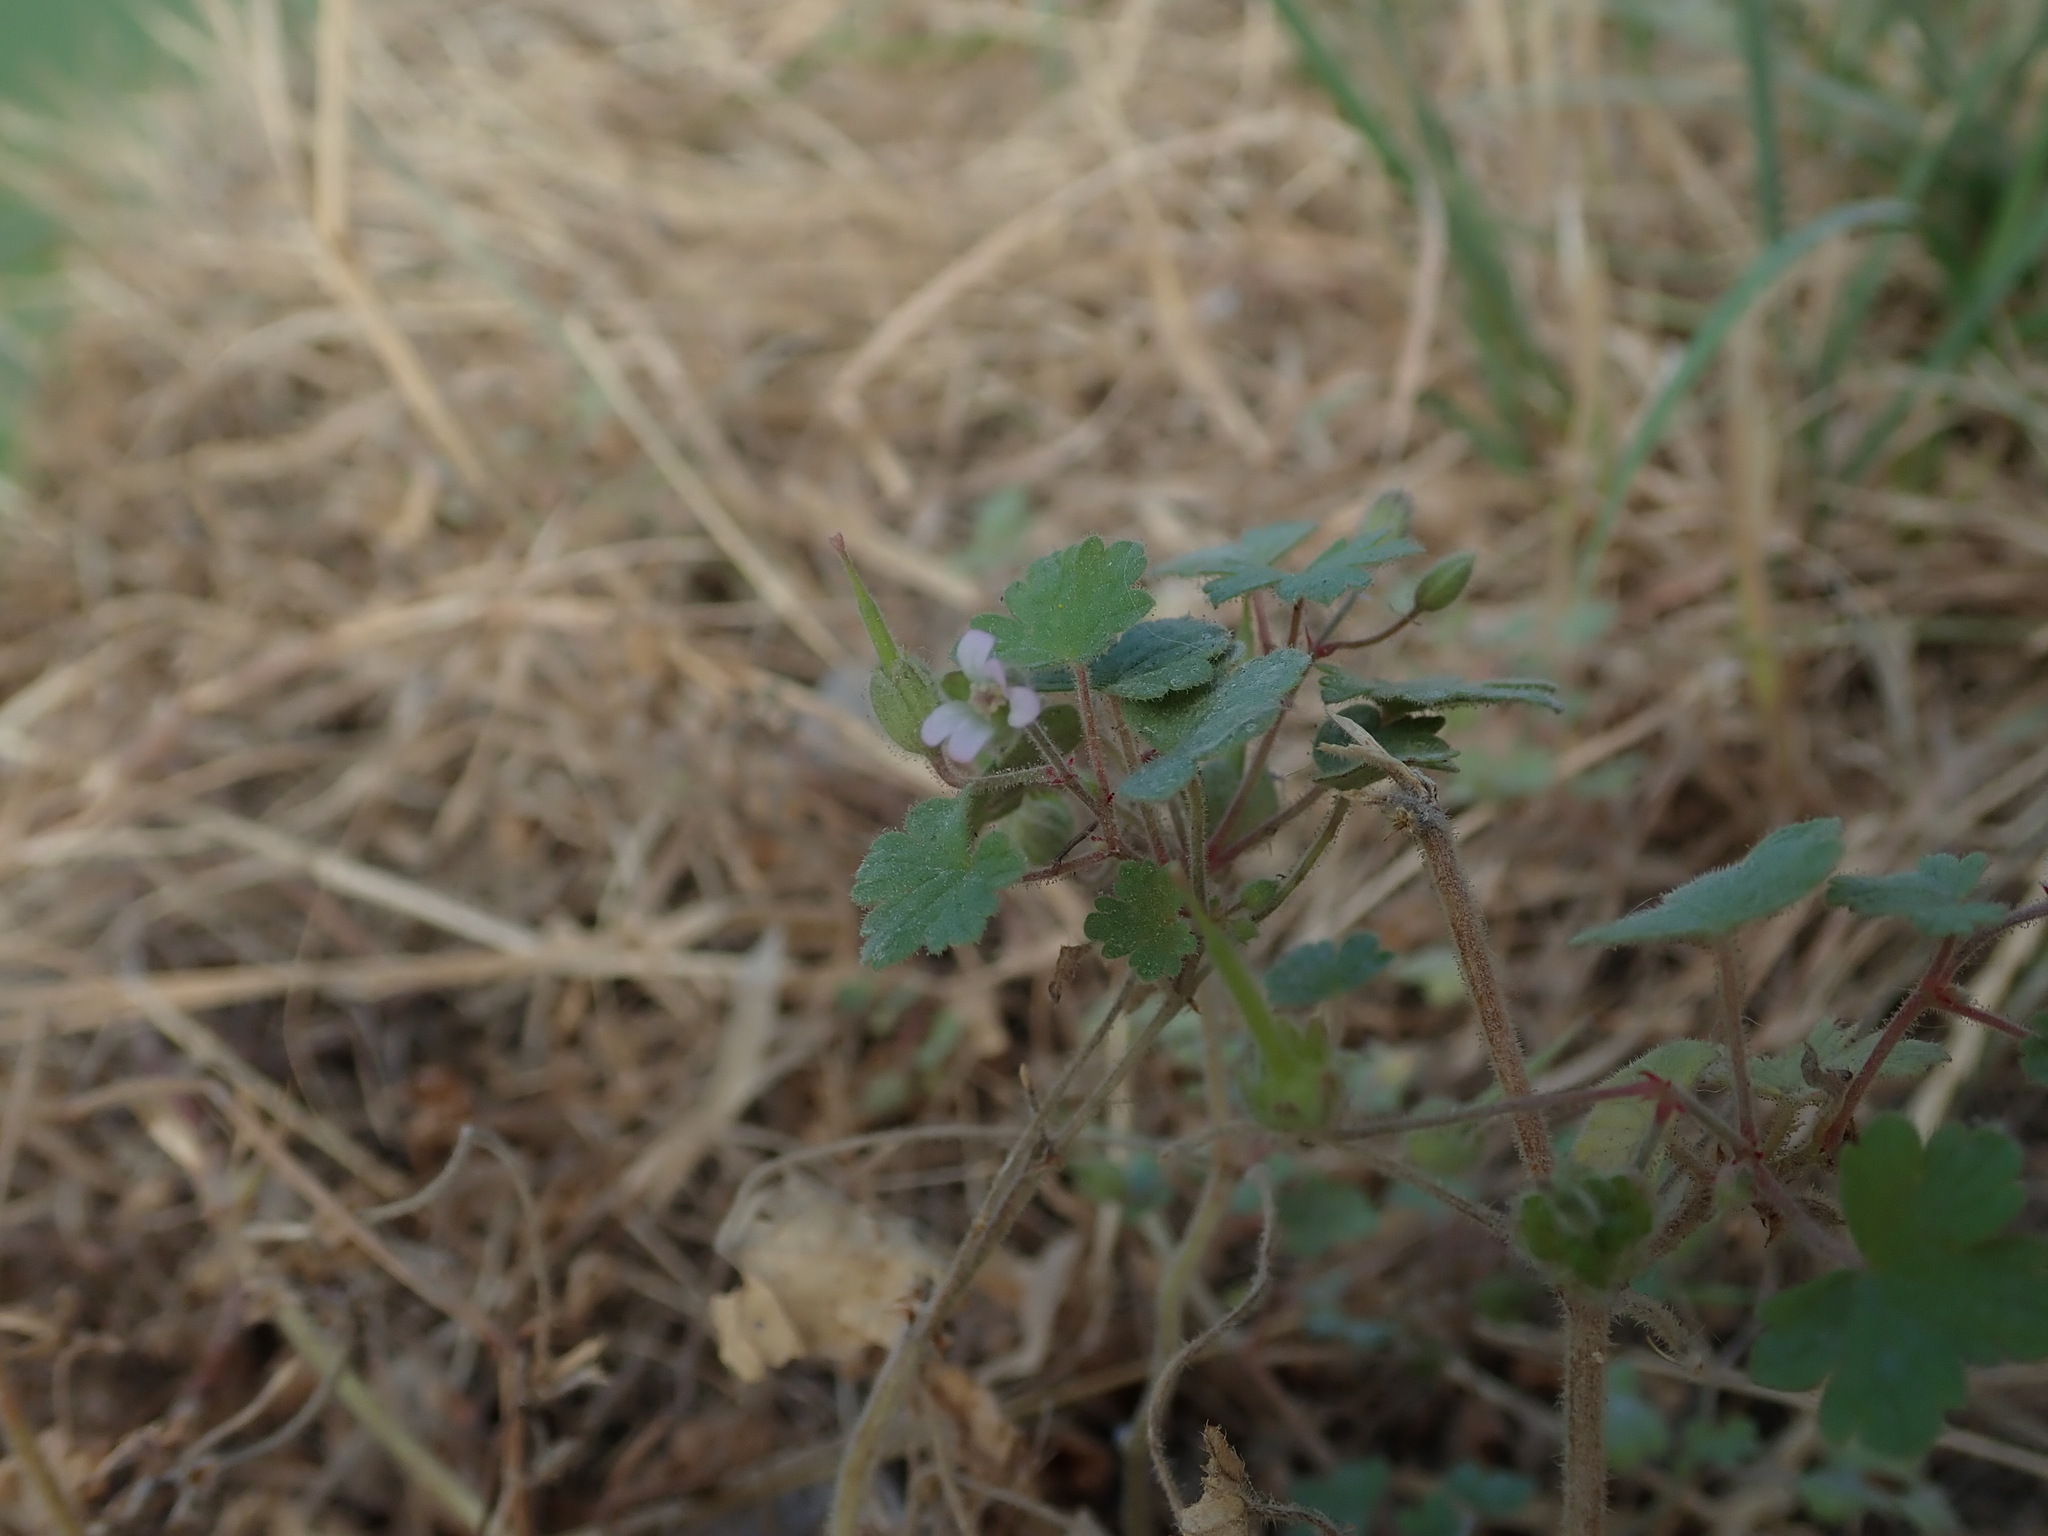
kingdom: Plantae
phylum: Tracheophyta
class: Magnoliopsida
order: Geraniales
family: Geraniaceae
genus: Geranium
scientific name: Geranium rotundifolium
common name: Round-leaved crane's-bill
